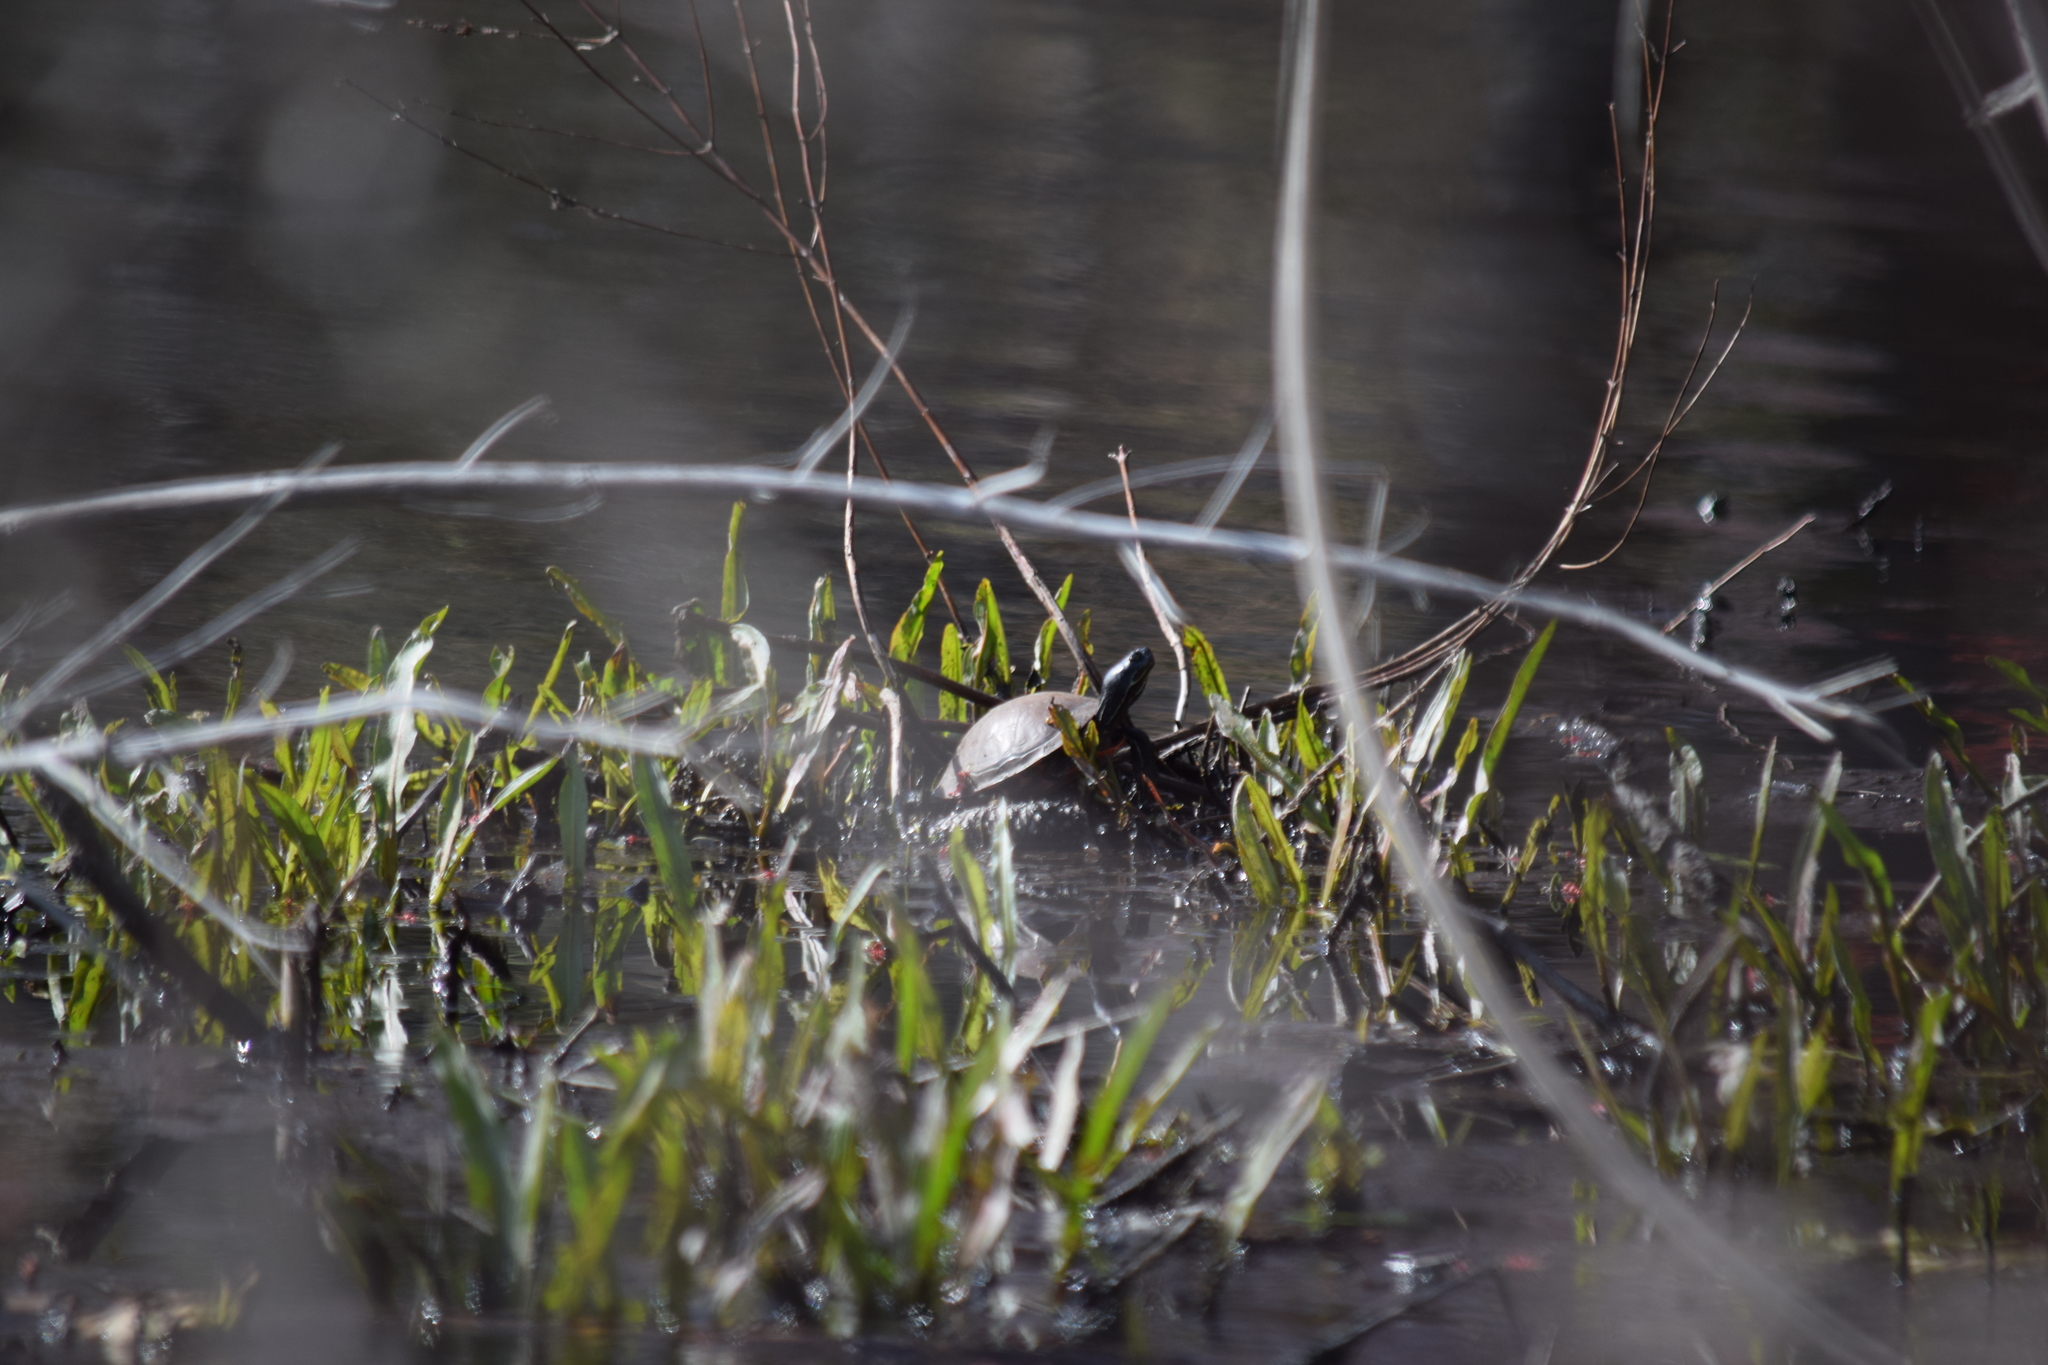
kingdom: Animalia
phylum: Chordata
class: Testudines
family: Emydidae
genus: Pseudemys
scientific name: Pseudemys rubriventris
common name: American red-bellied turtle
